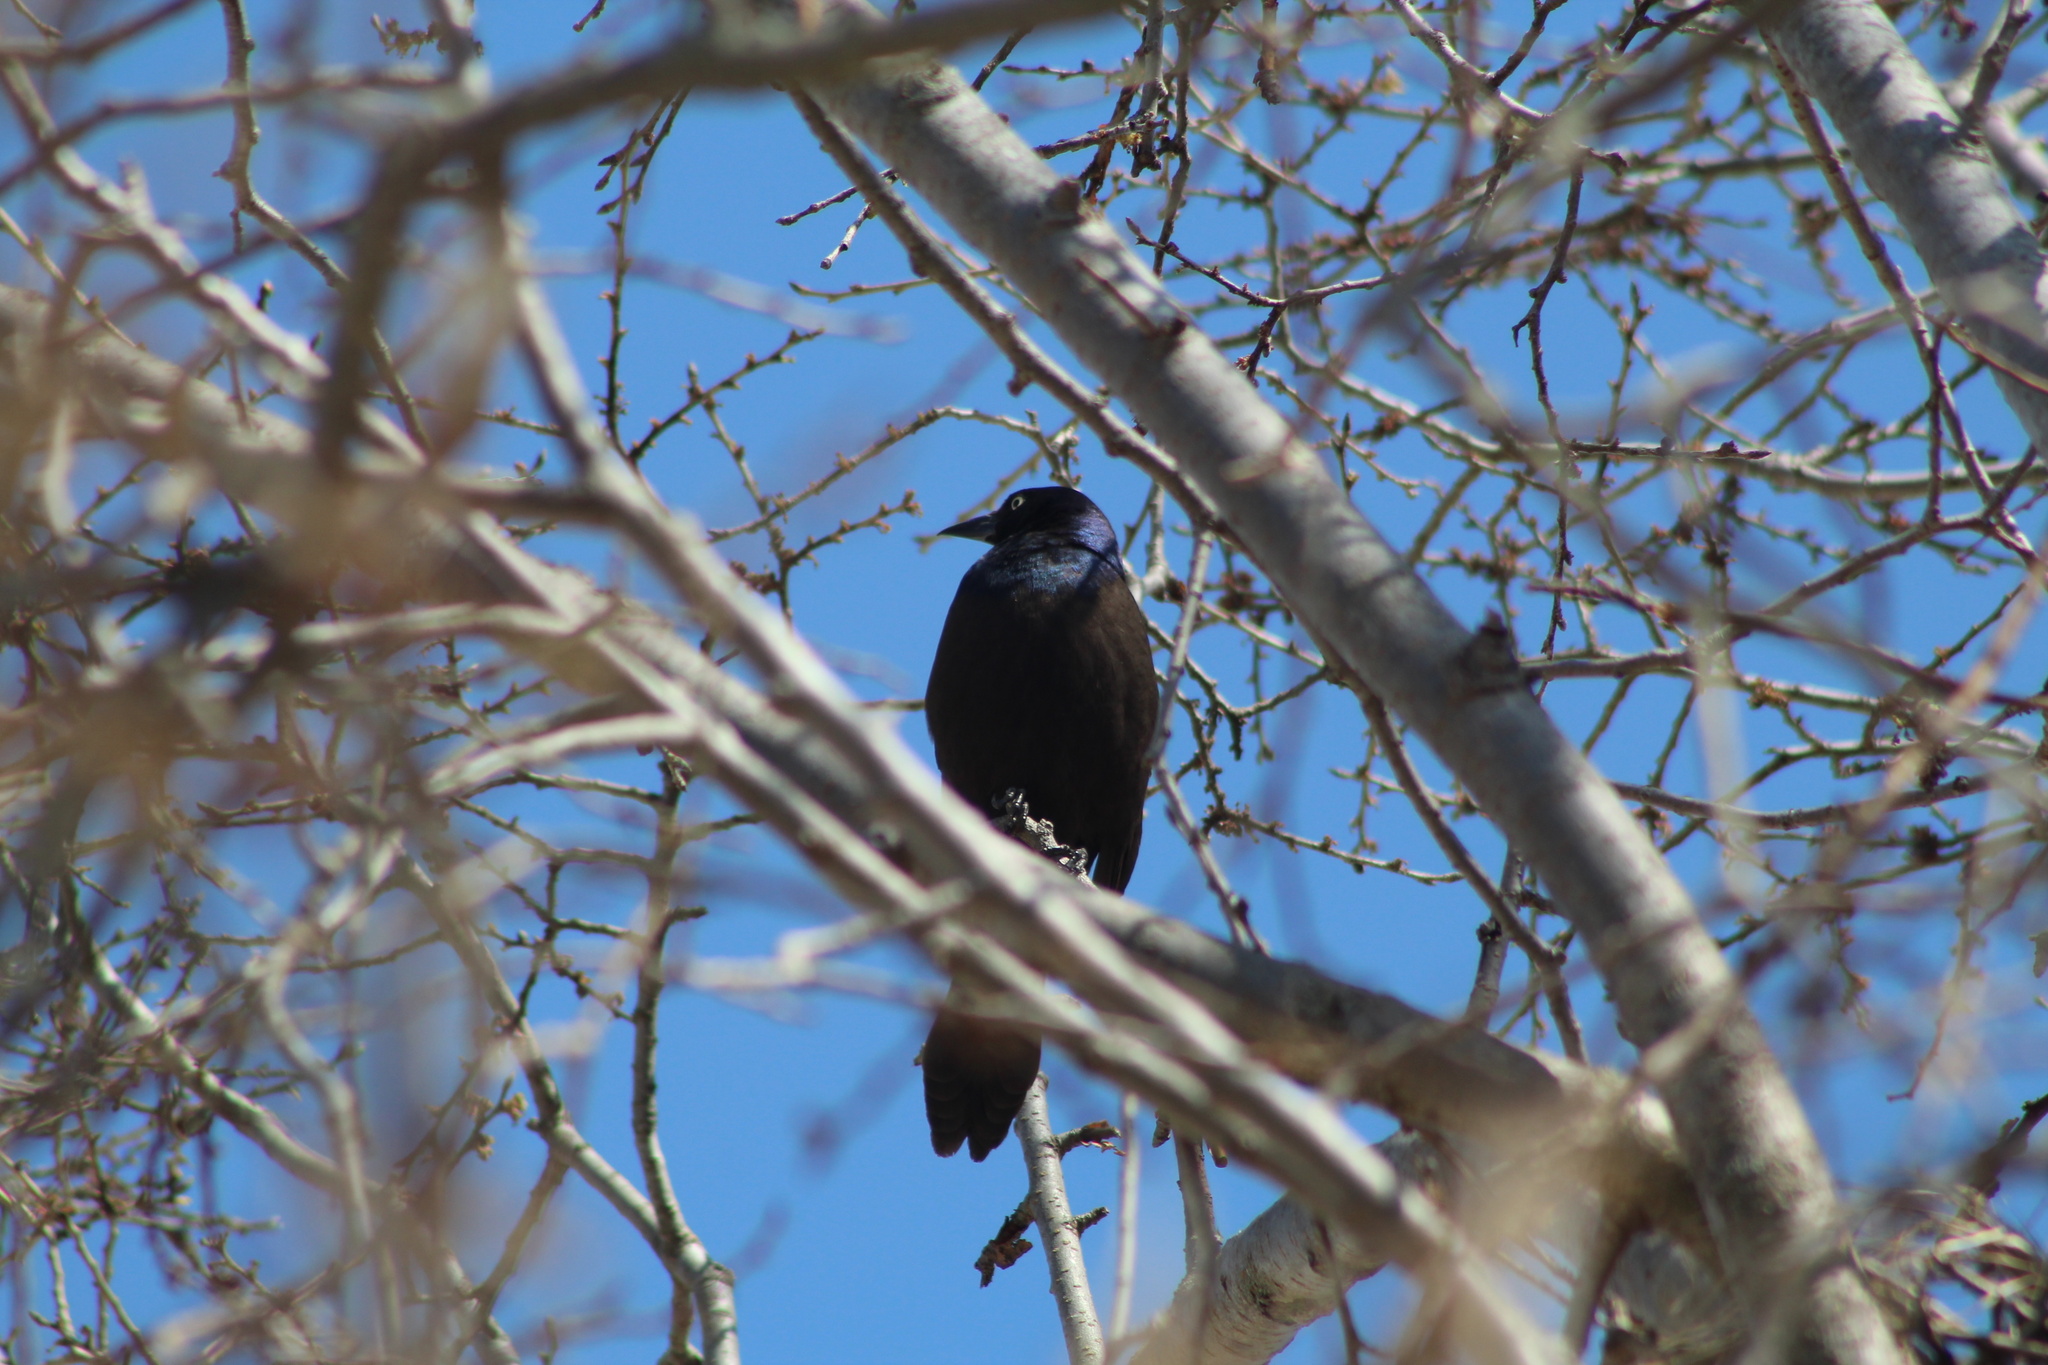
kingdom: Animalia
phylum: Chordata
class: Aves
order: Passeriformes
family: Icteridae
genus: Quiscalus
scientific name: Quiscalus quiscula
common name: Common grackle
